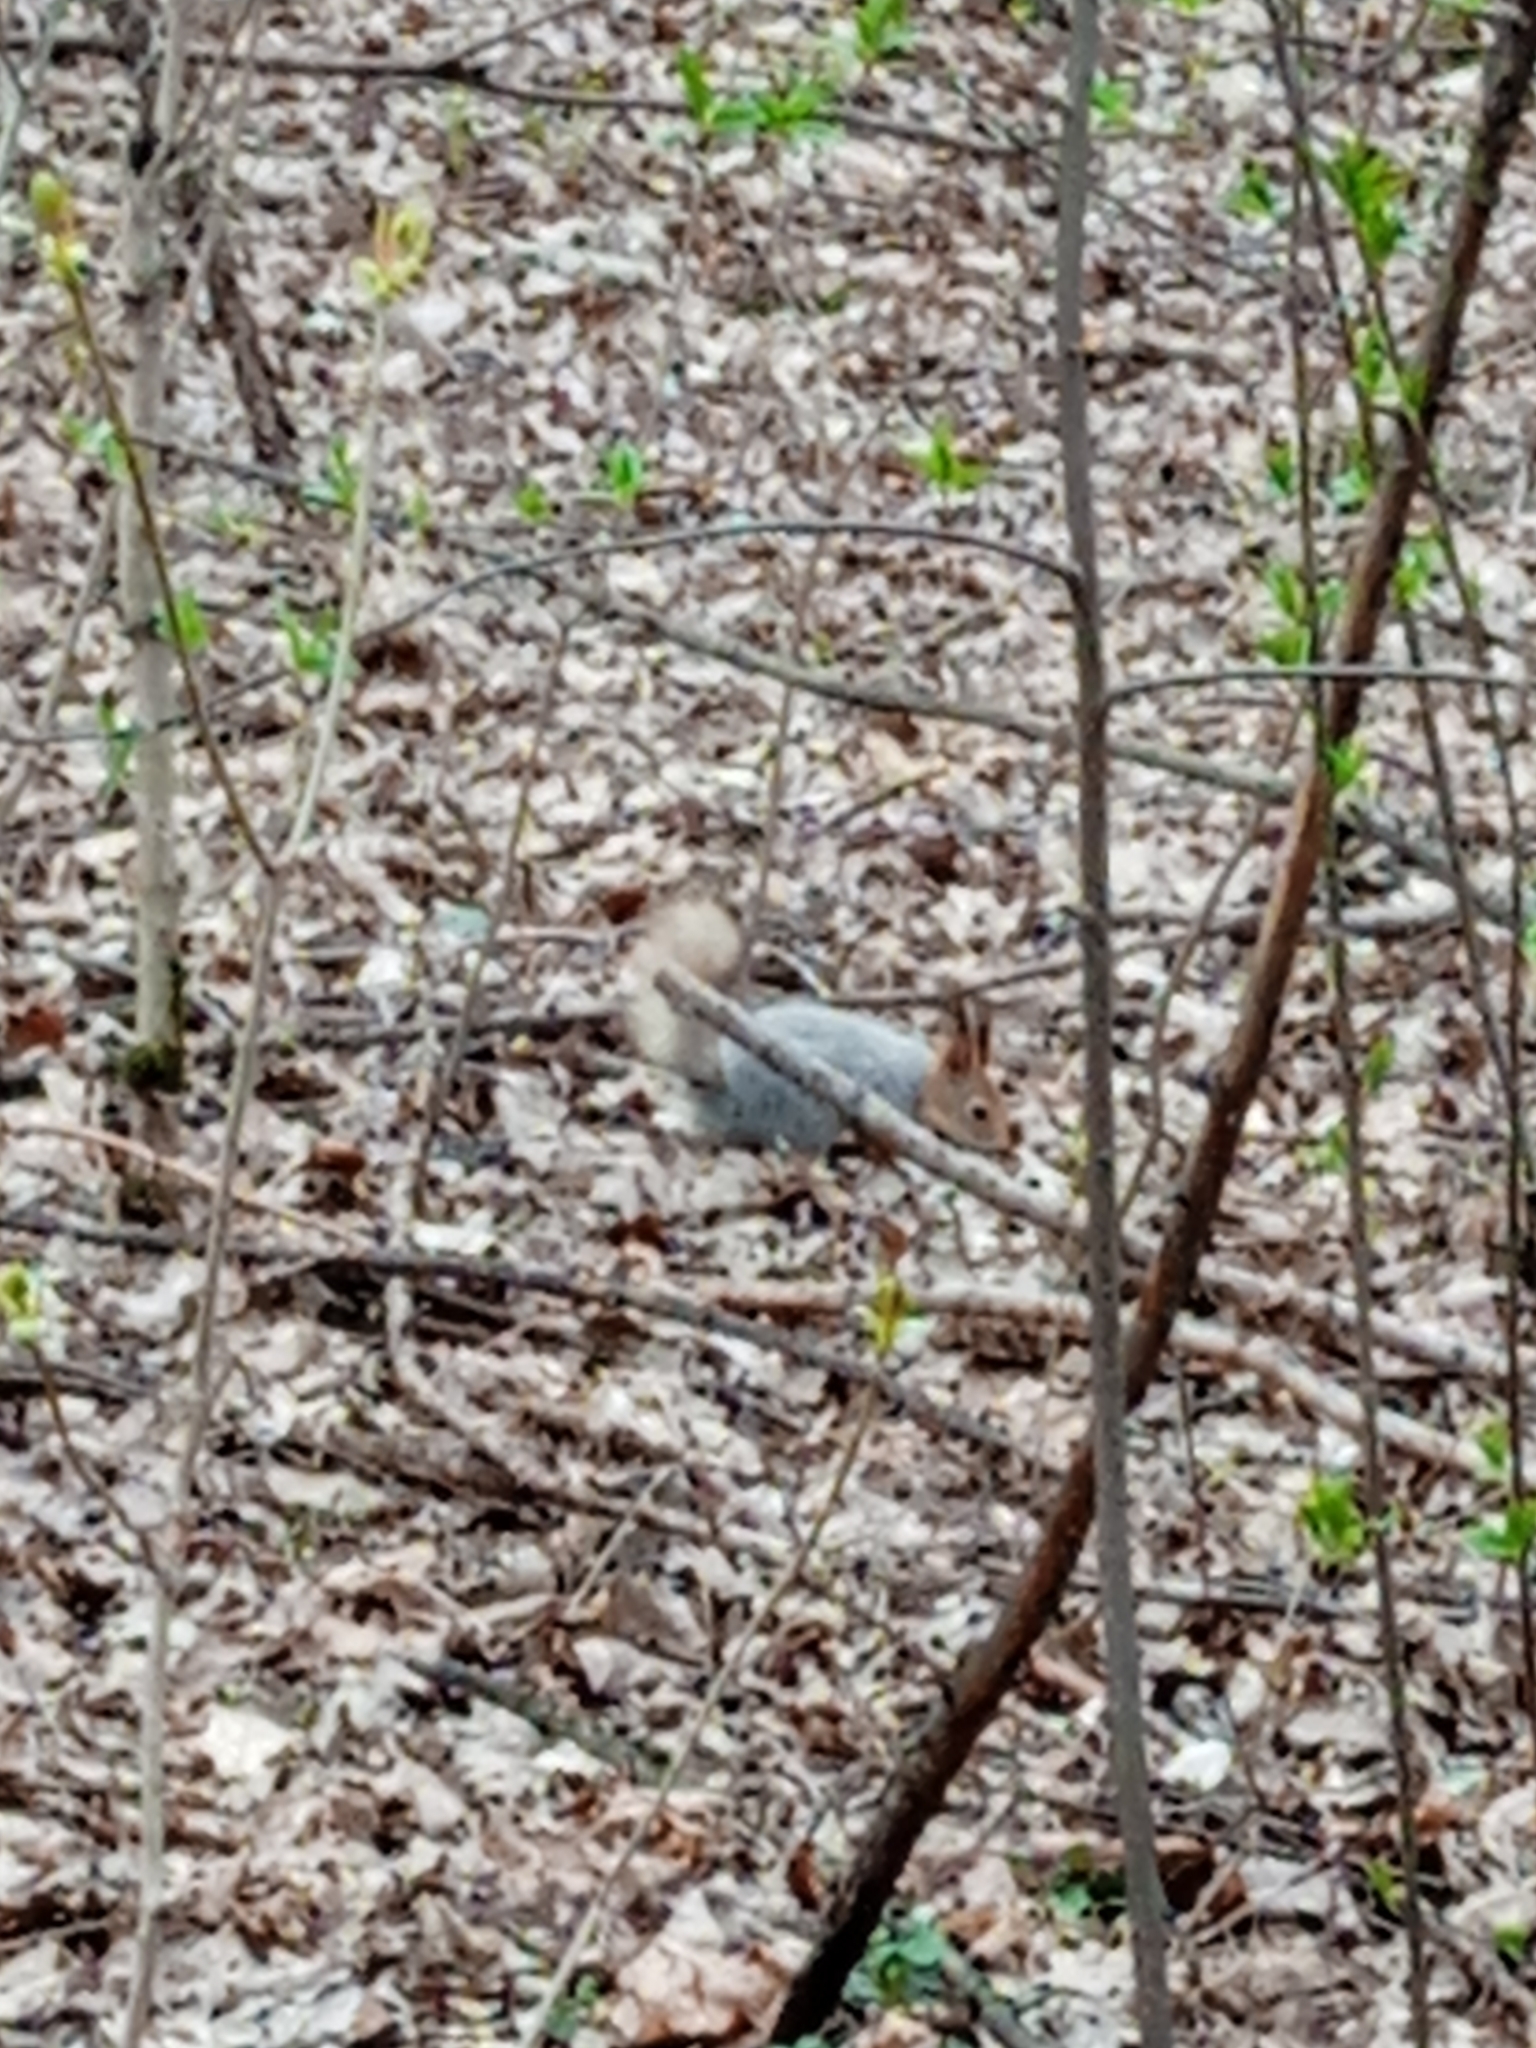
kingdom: Animalia
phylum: Chordata
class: Mammalia
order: Rodentia
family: Sciuridae
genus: Sciurus
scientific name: Sciurus vulgaris
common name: Eurasian red squirrel
